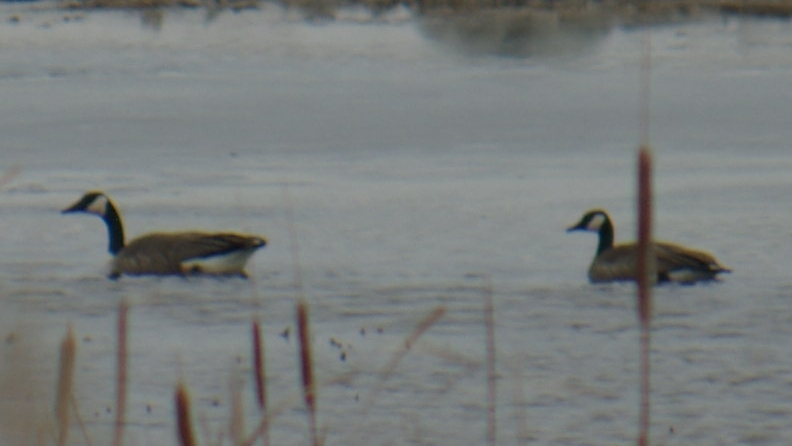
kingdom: Animalia
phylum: Chordata
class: Aves
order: Anseriformes
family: Anatidae
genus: Branta
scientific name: Branta canadensis
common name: Canada goose
